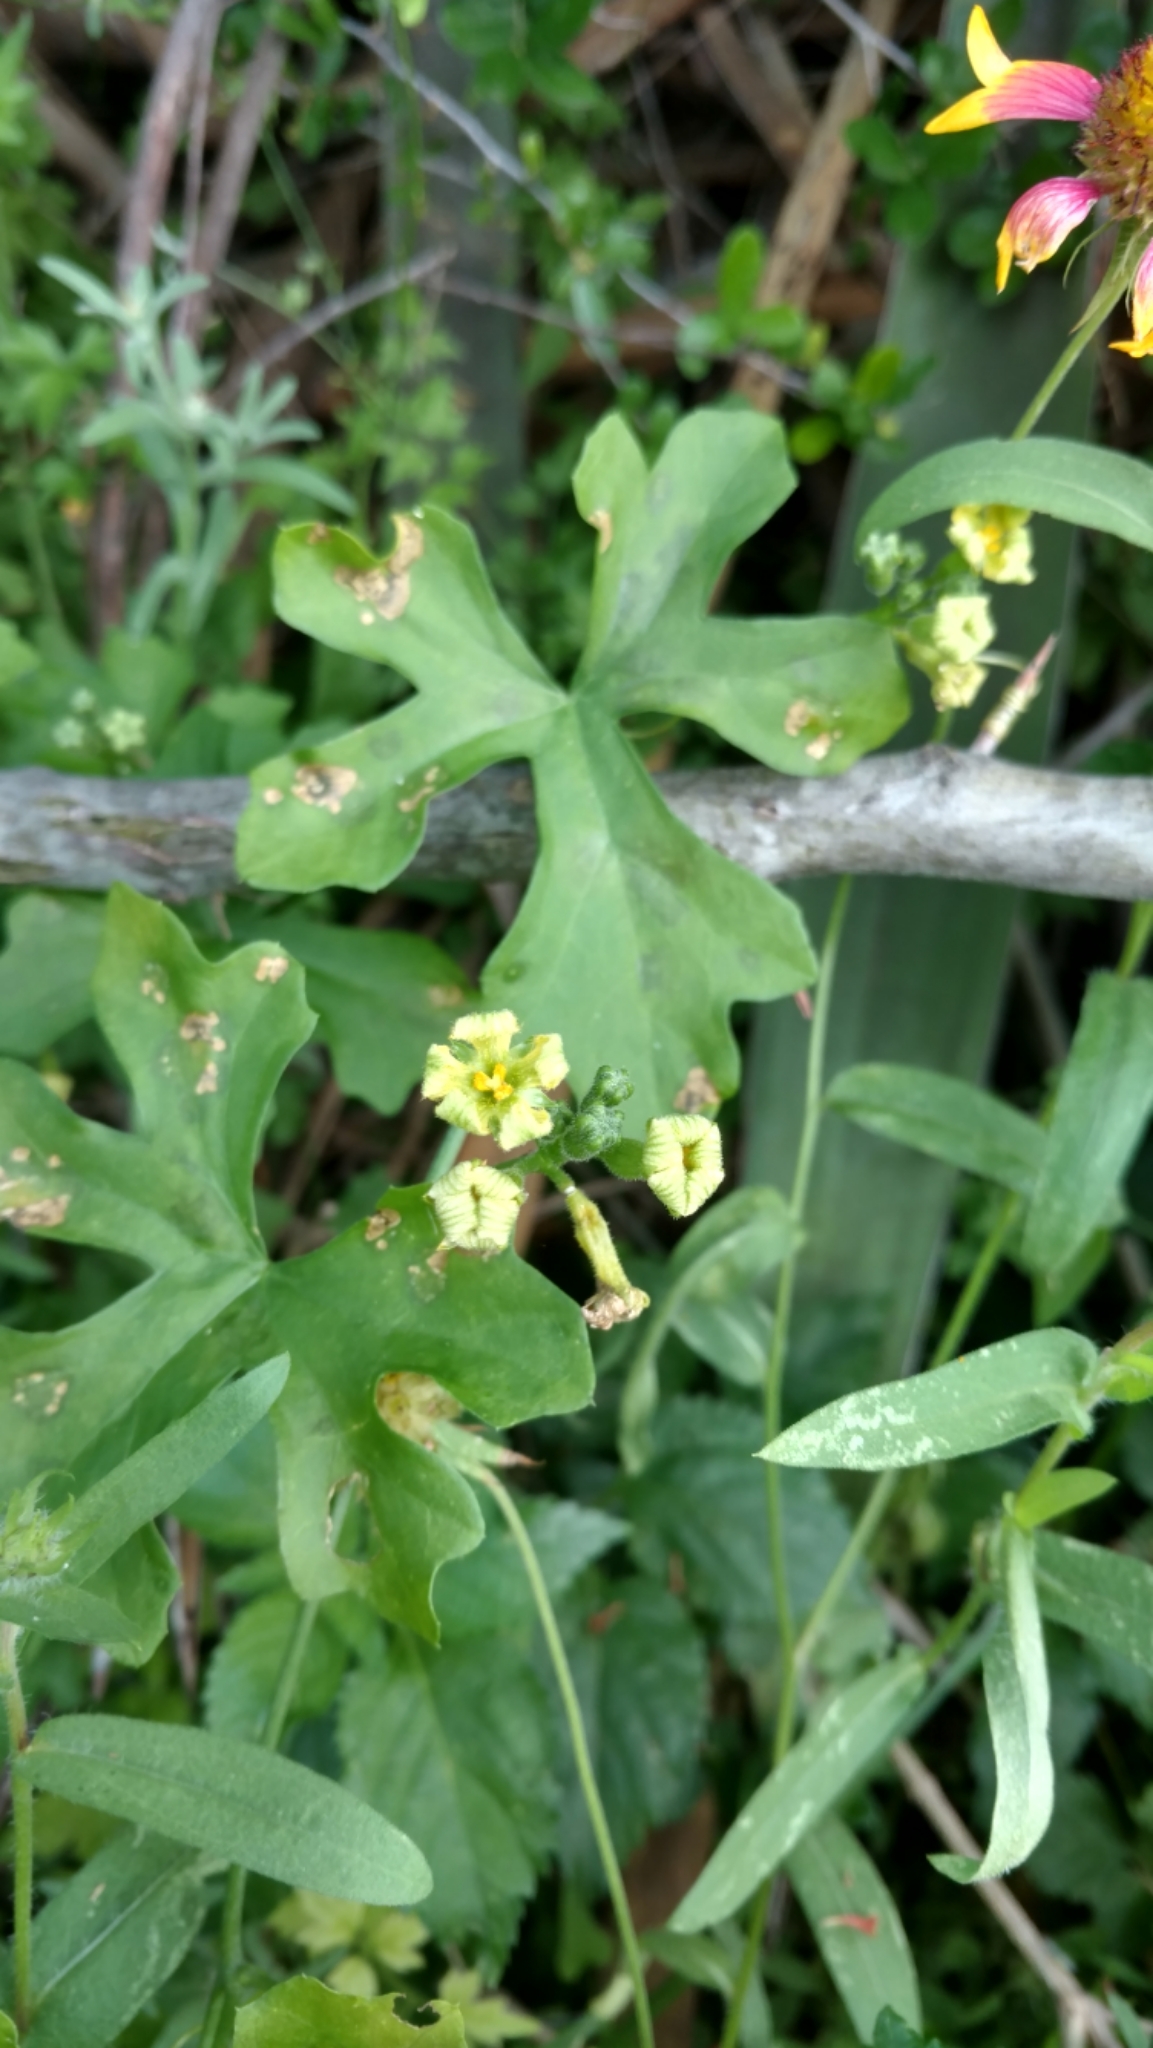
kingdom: Plantae
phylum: Tracheophyta
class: Magnoliopsida
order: Cucurbitales
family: Cucurbitaceae
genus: Ibervillea
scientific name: Ibervillea lindheimeri
